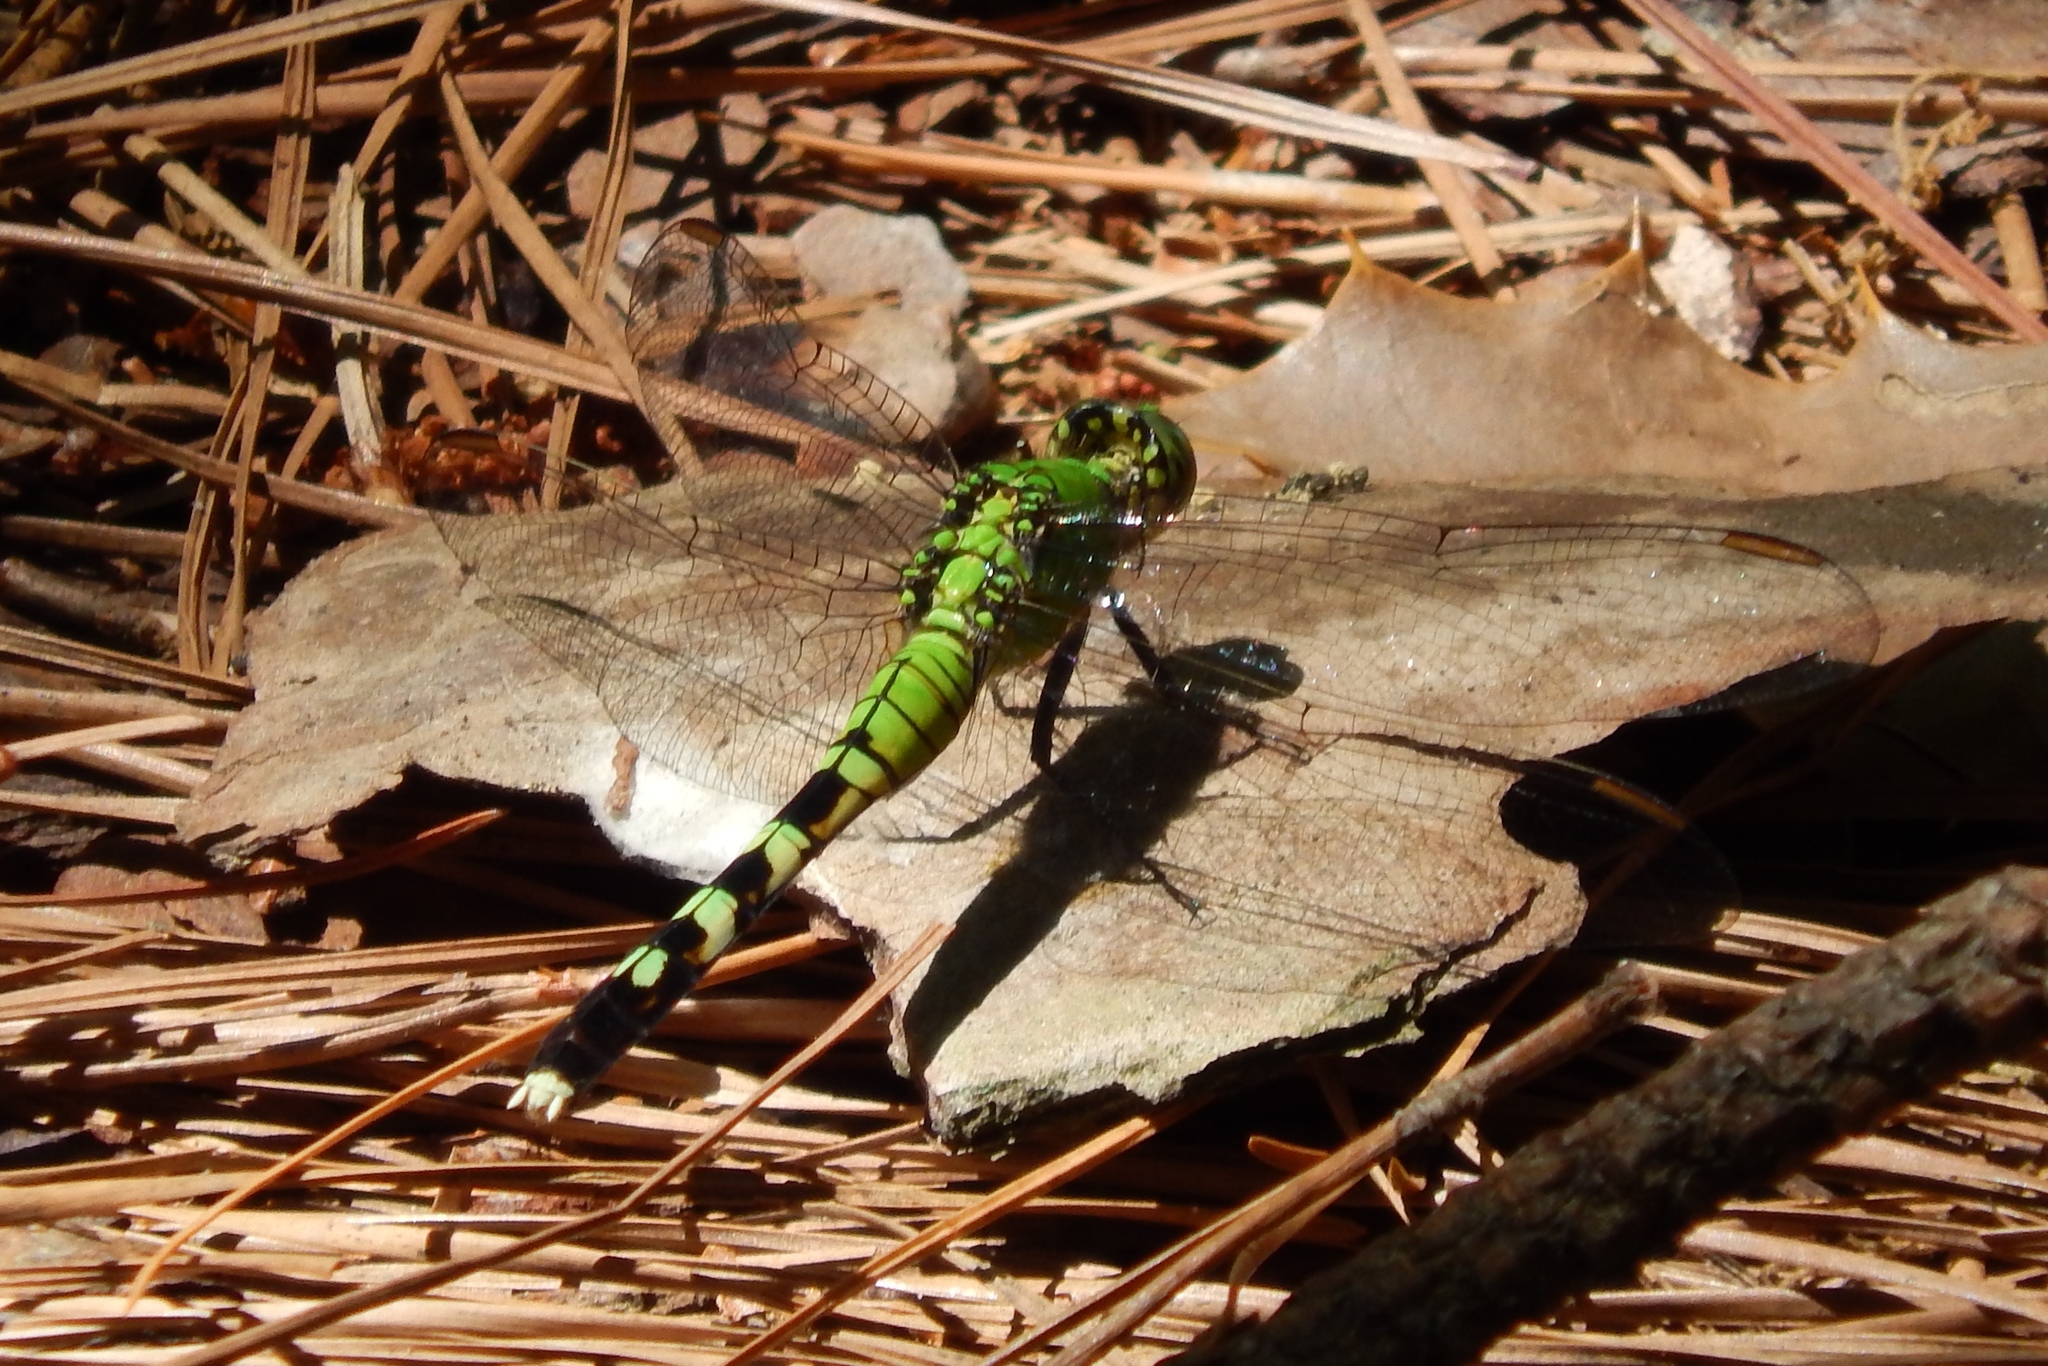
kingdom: Animalia
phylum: Arthropoda
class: Insecta
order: Odonata
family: Libellulidae
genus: Erythemis
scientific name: Erythemis simplicicollis
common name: Eastern pondhawk
